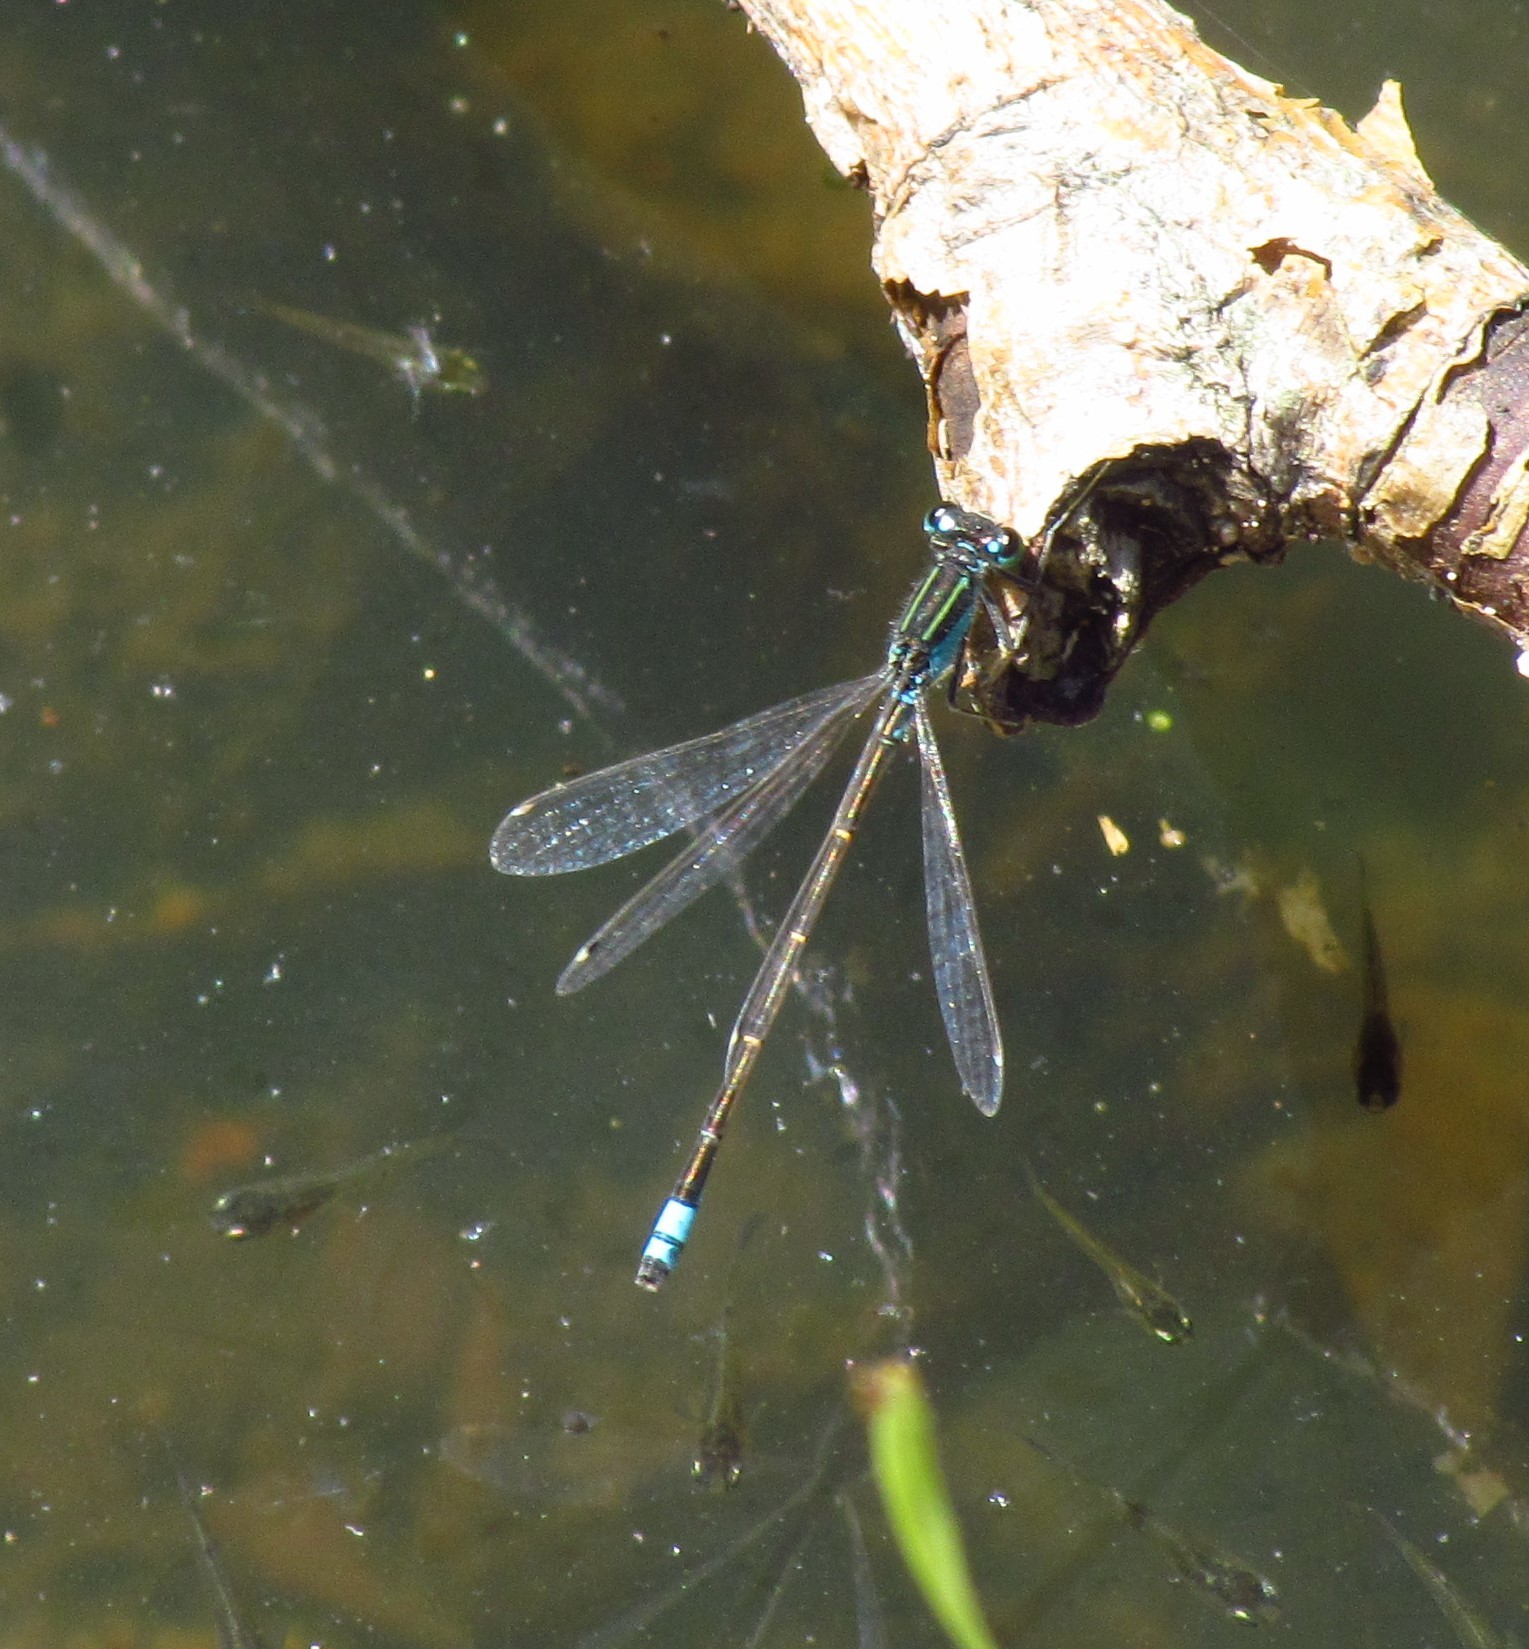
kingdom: Animalia
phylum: Arthropoda
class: Insecta
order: Odonata
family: Coenagrionidae
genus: Ischnura
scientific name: Ischnura fluviatilis
